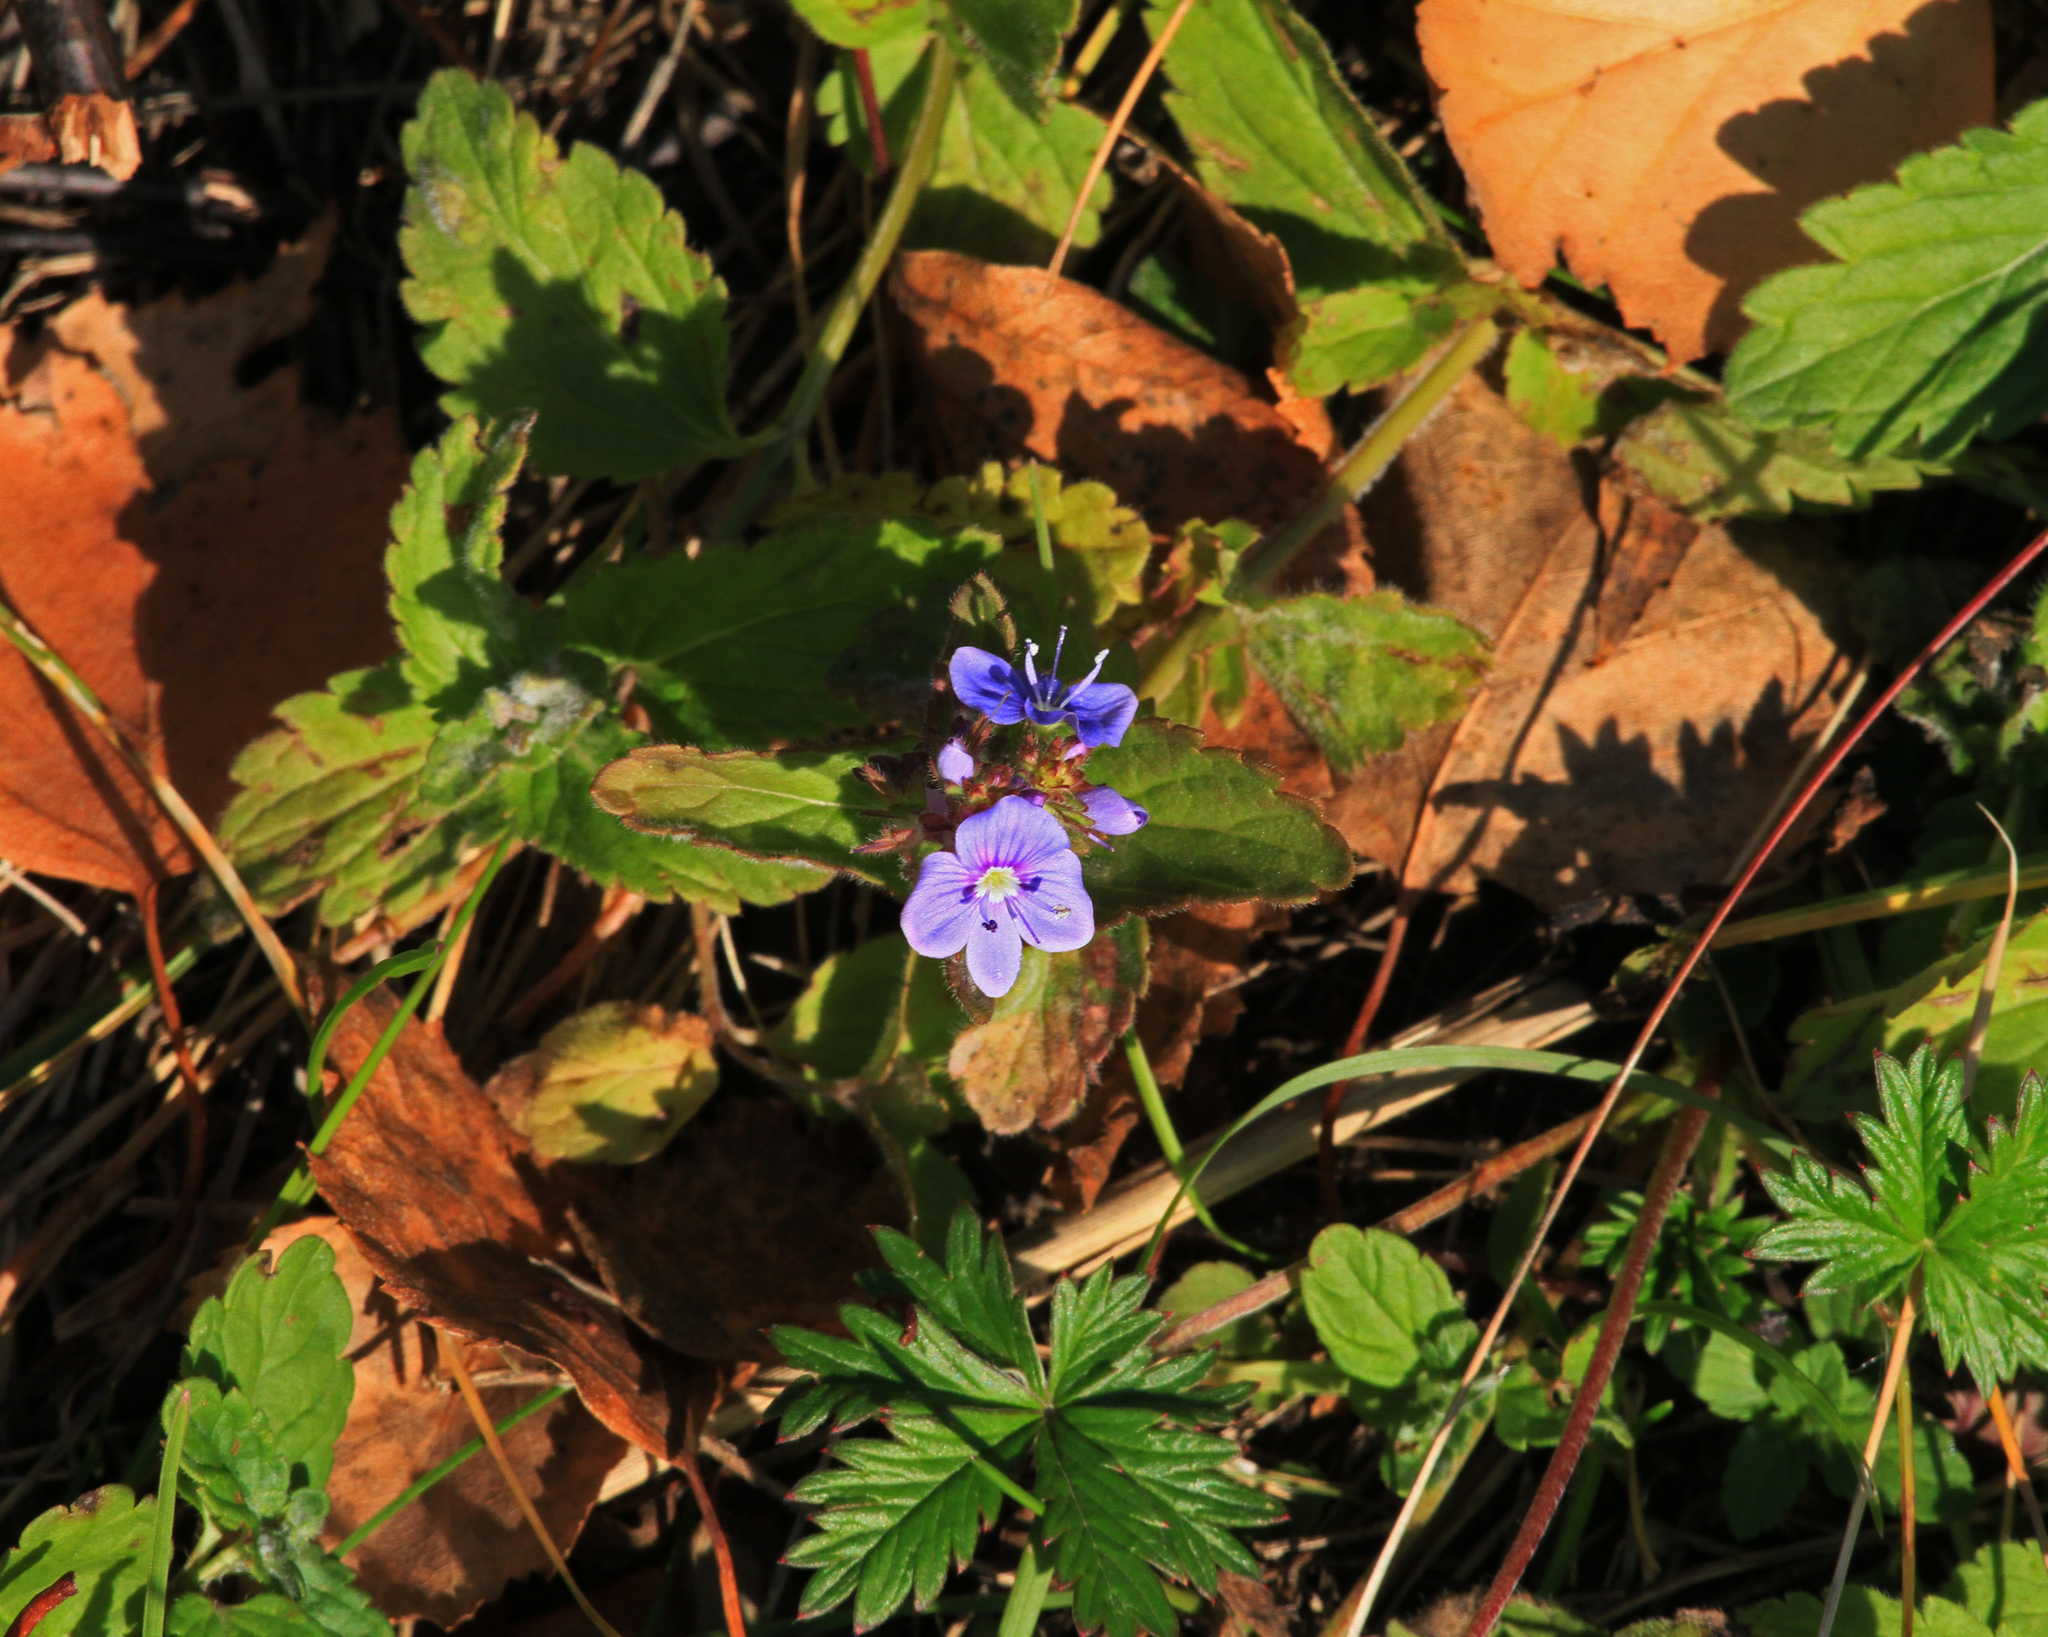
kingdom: Plantae
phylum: Tracheophyta
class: Magnoliopsida
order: Lamiales
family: Plantaginaceae
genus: Veronica
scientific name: Veronica chamaedrys
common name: Germander speedwell
